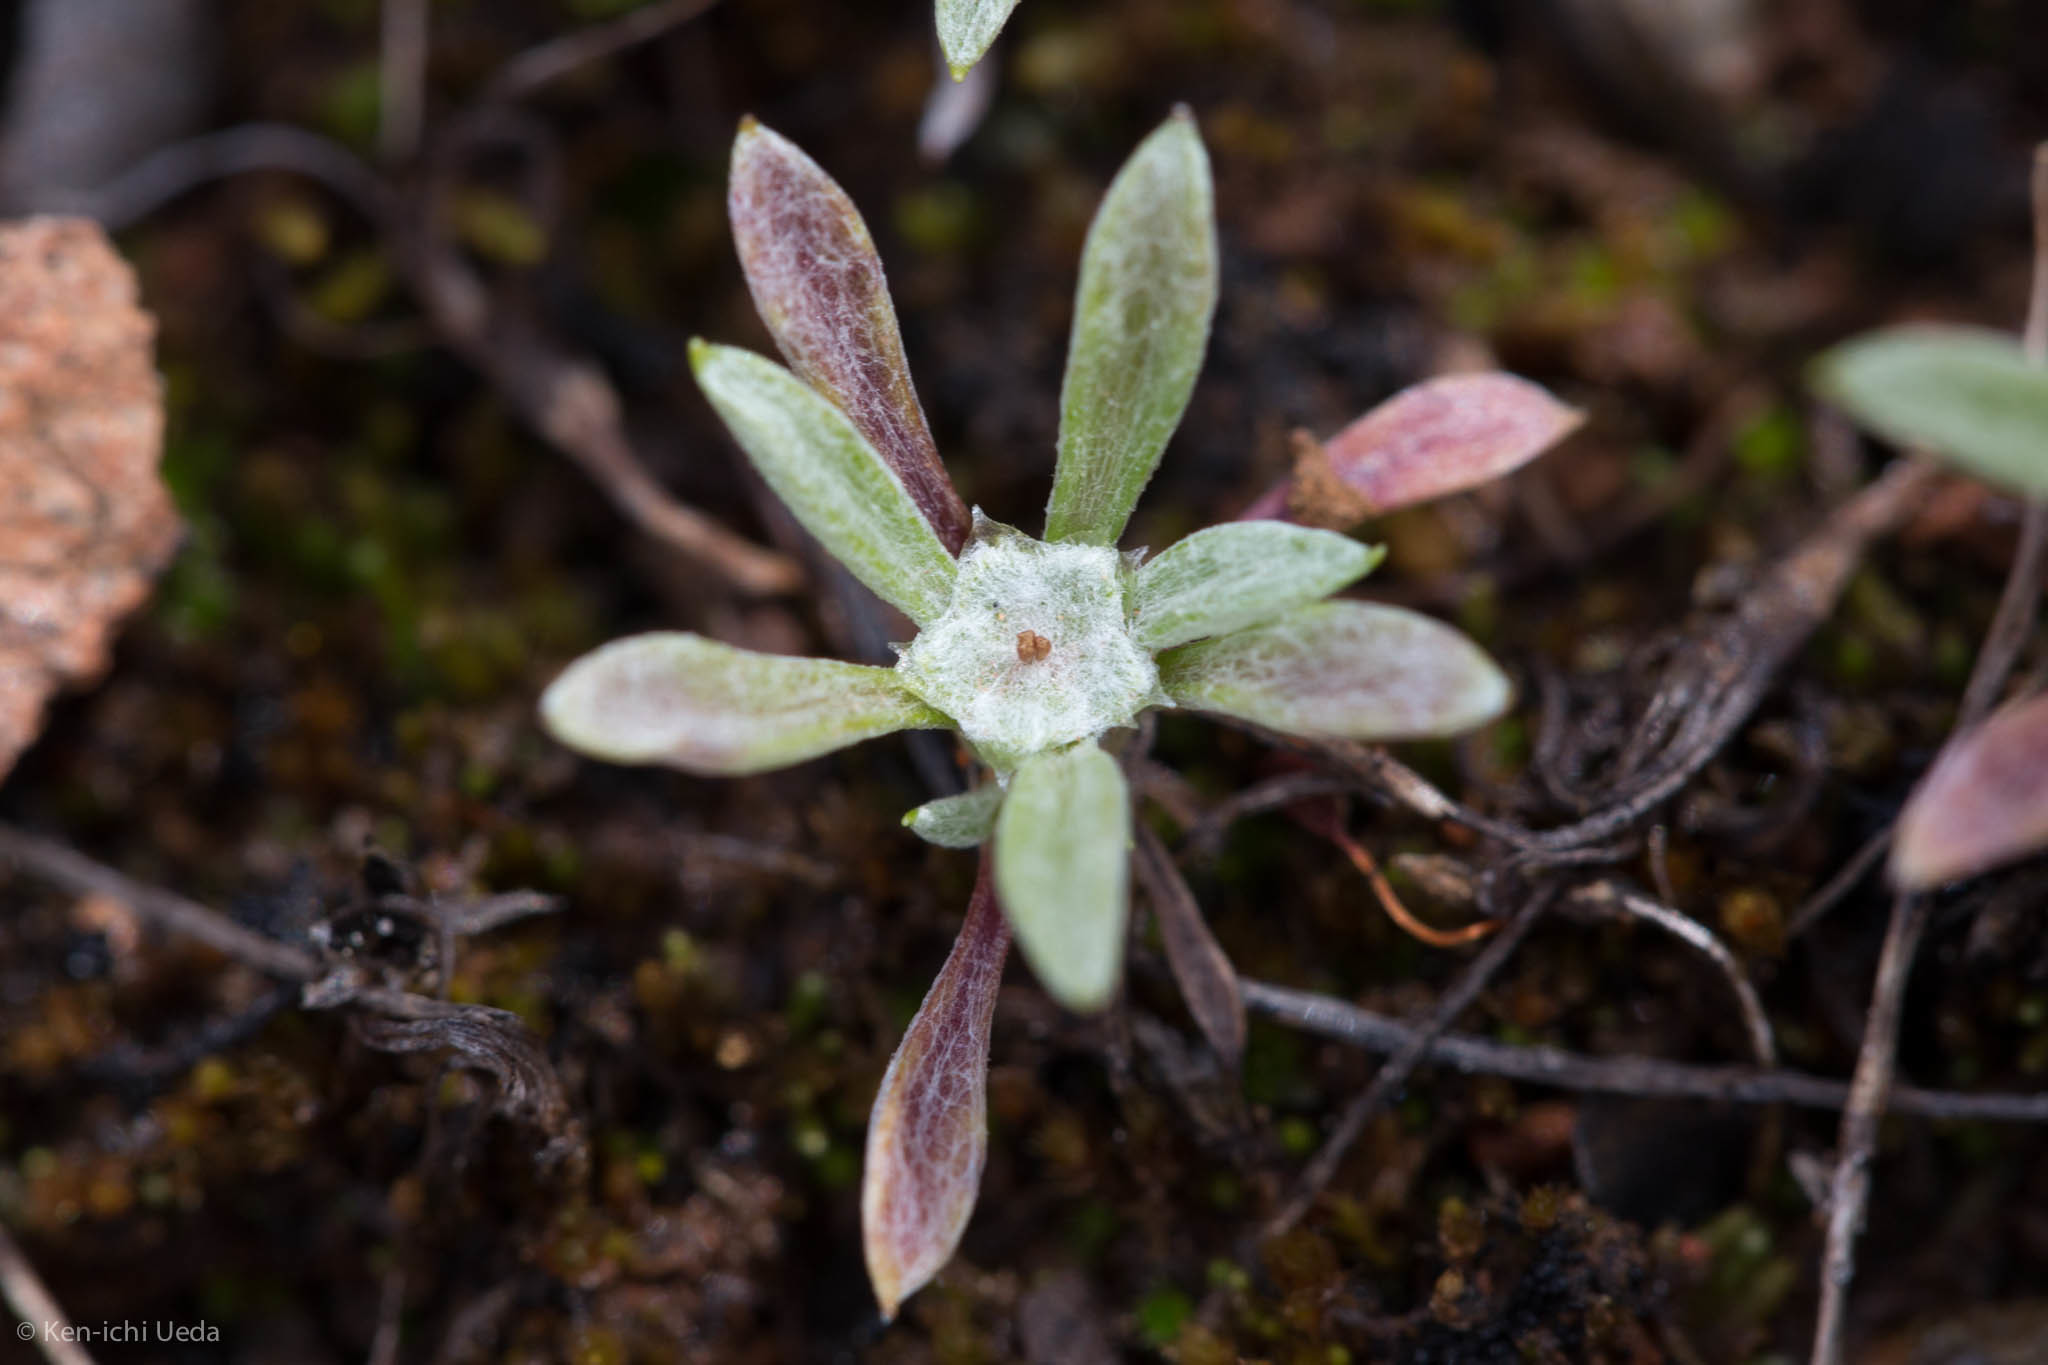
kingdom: Plantae
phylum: Tracheophyta
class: Magnoliopsida
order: Asterales
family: Asteraceae
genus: Hesperevax
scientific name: Hesperevax acaulis
